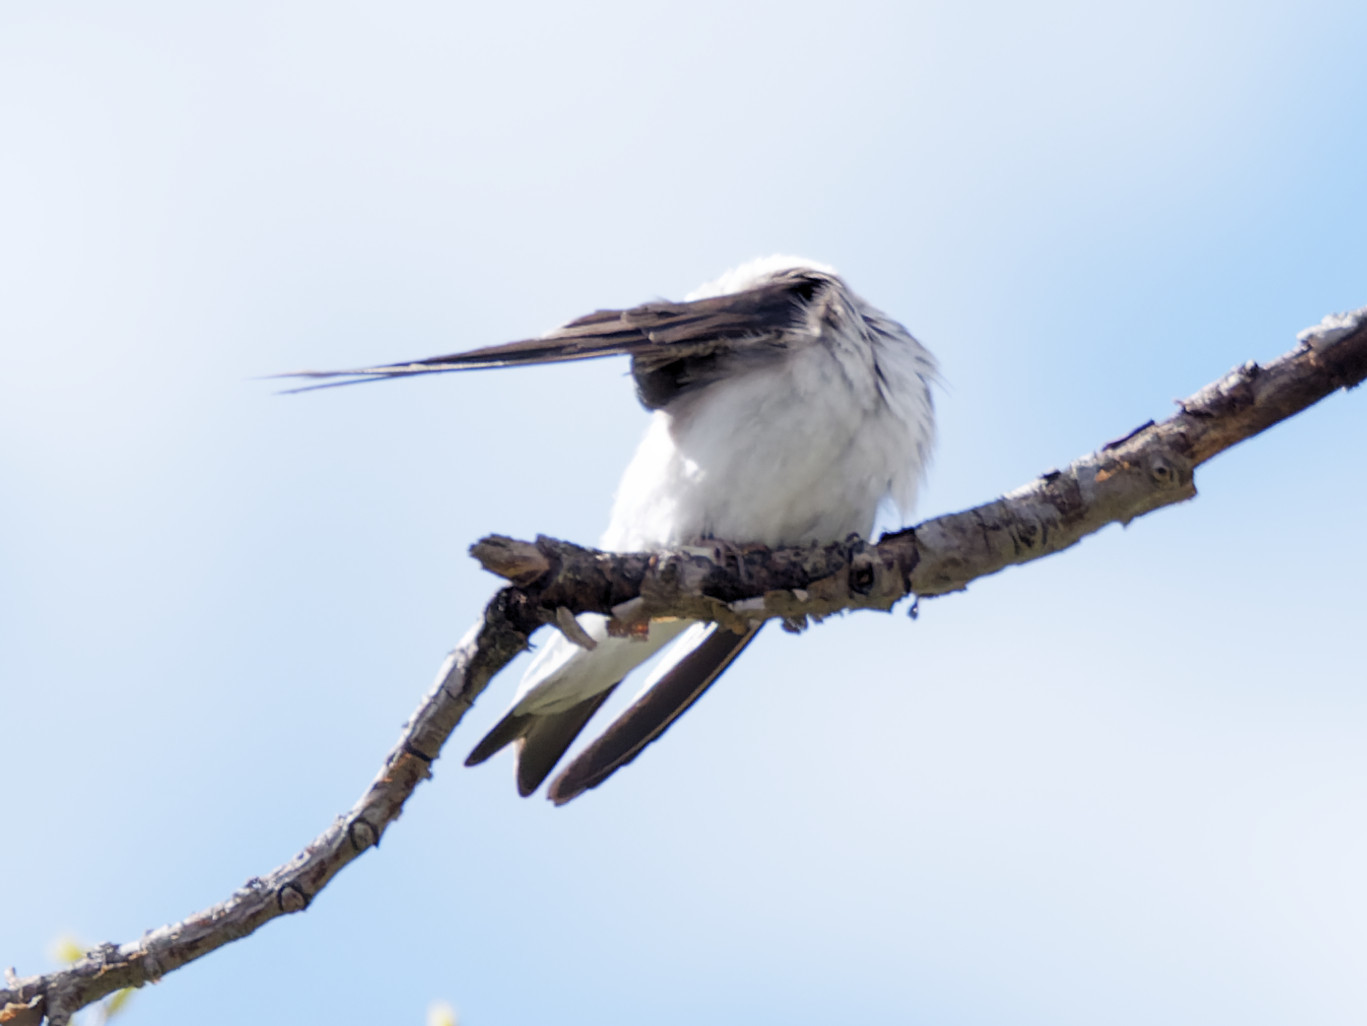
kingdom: Animalia
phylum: Chordata
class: Aves
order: Passeriformes
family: Hirundinidae
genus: Tachycineta
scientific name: Tachycineta bicolor
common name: Tree swallow
